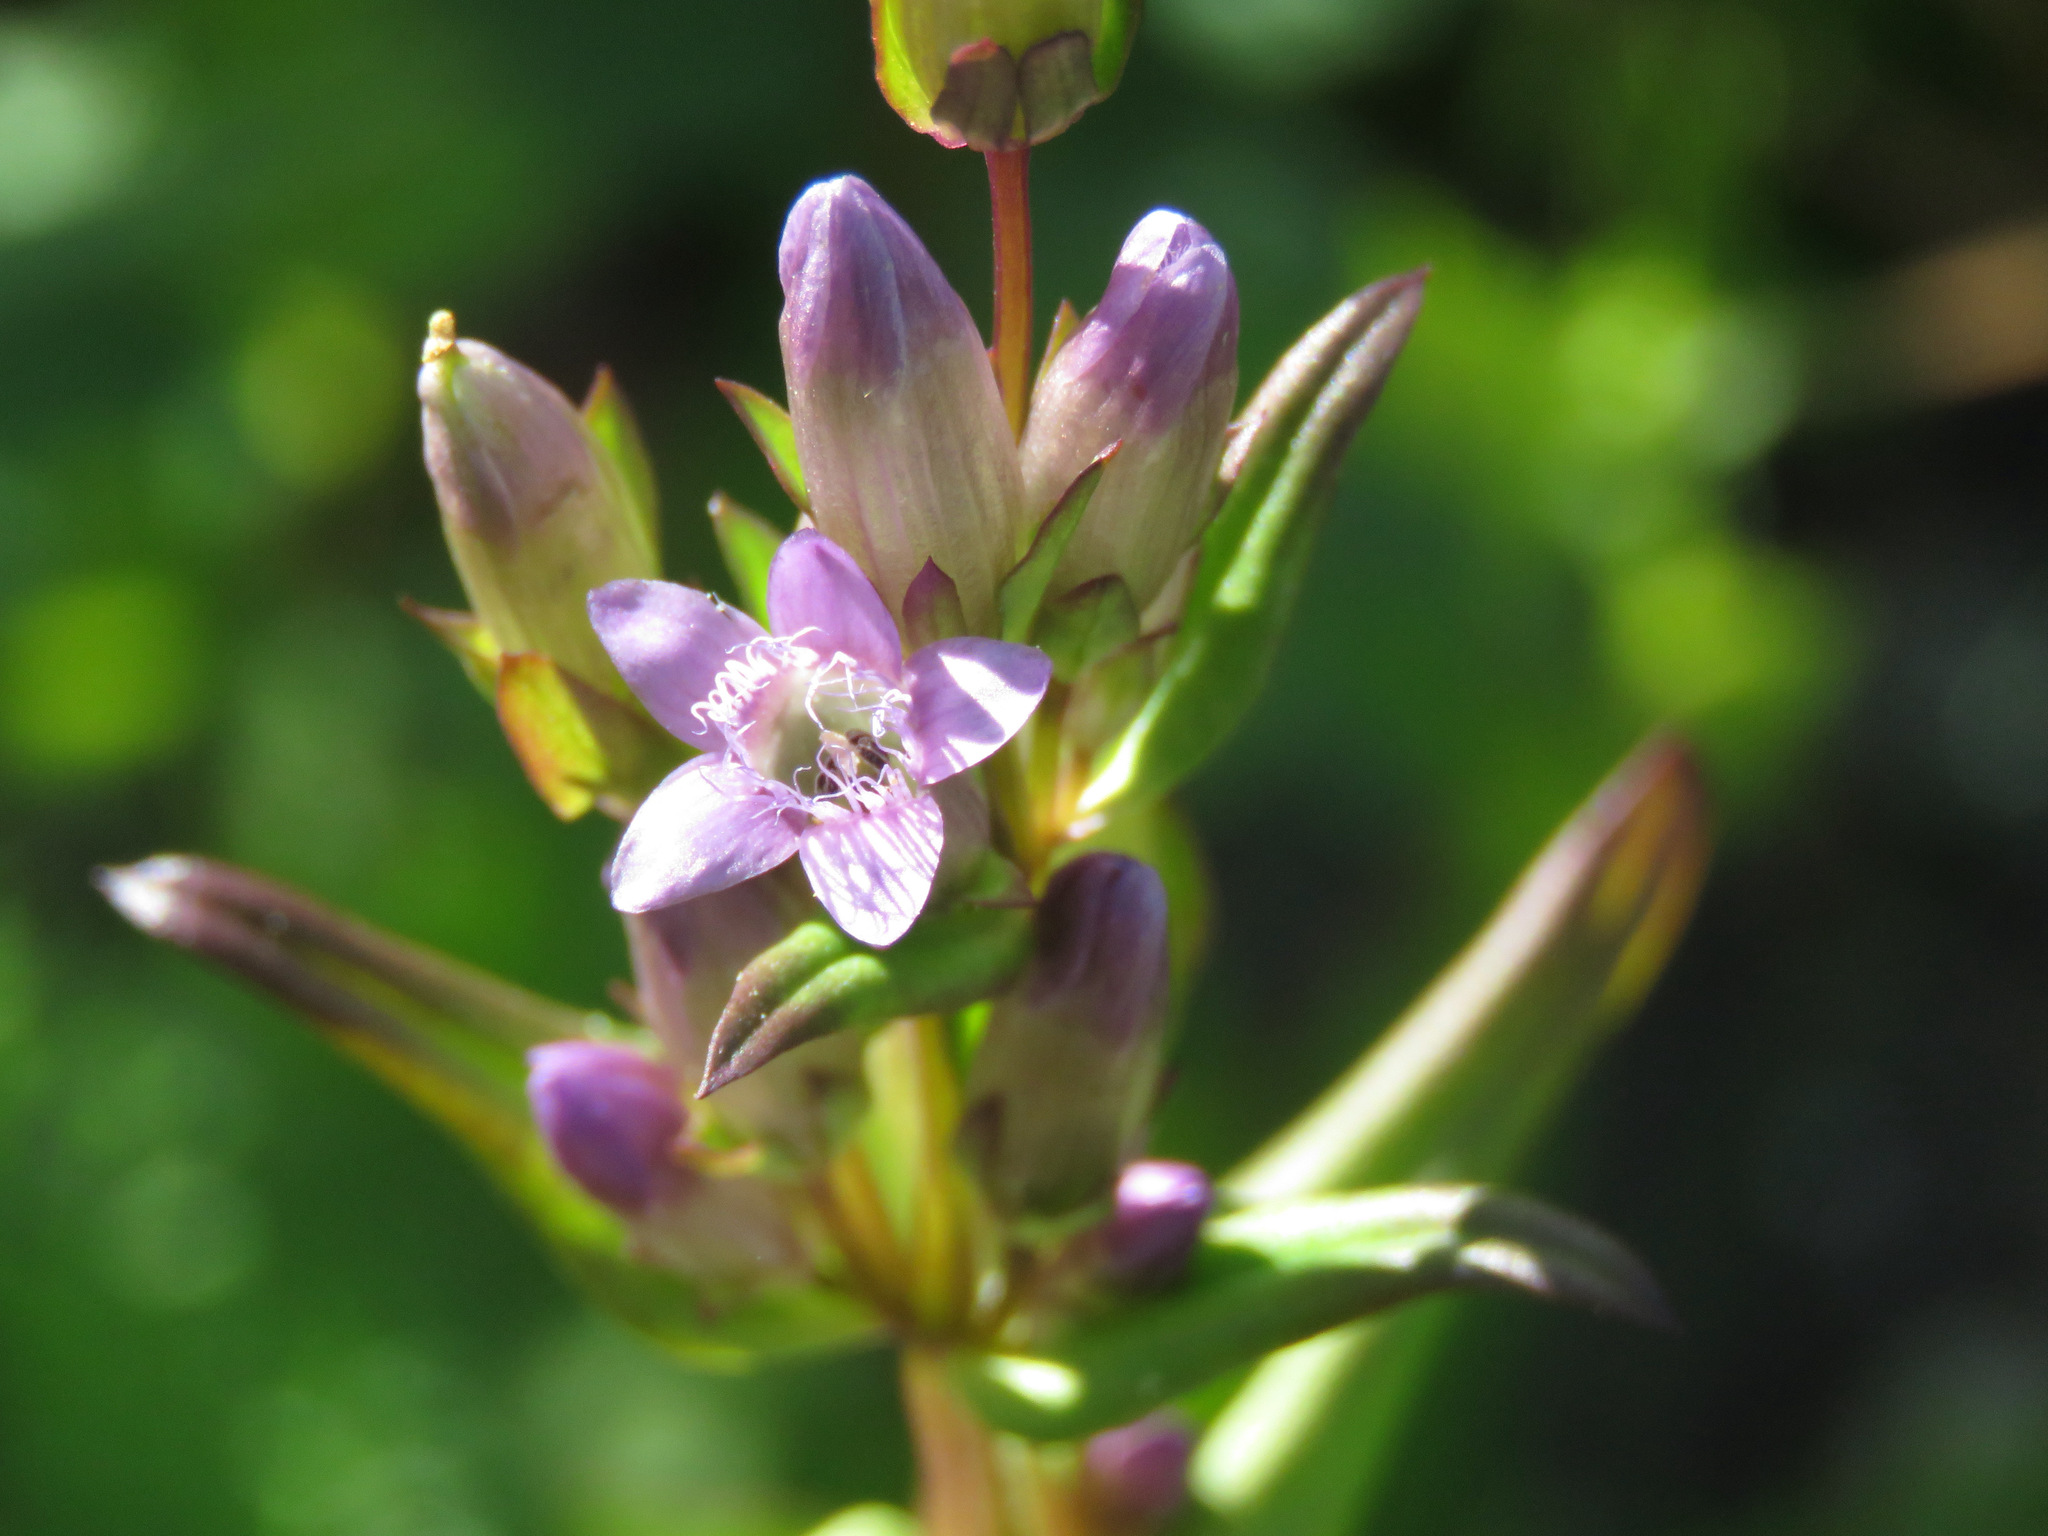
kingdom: Plantae
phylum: Tracheophyta
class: Magnoliopsida
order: Gentianales
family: Gentianaceae
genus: Gentianella
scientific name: Gentianella amarella
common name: Autumn gentian
